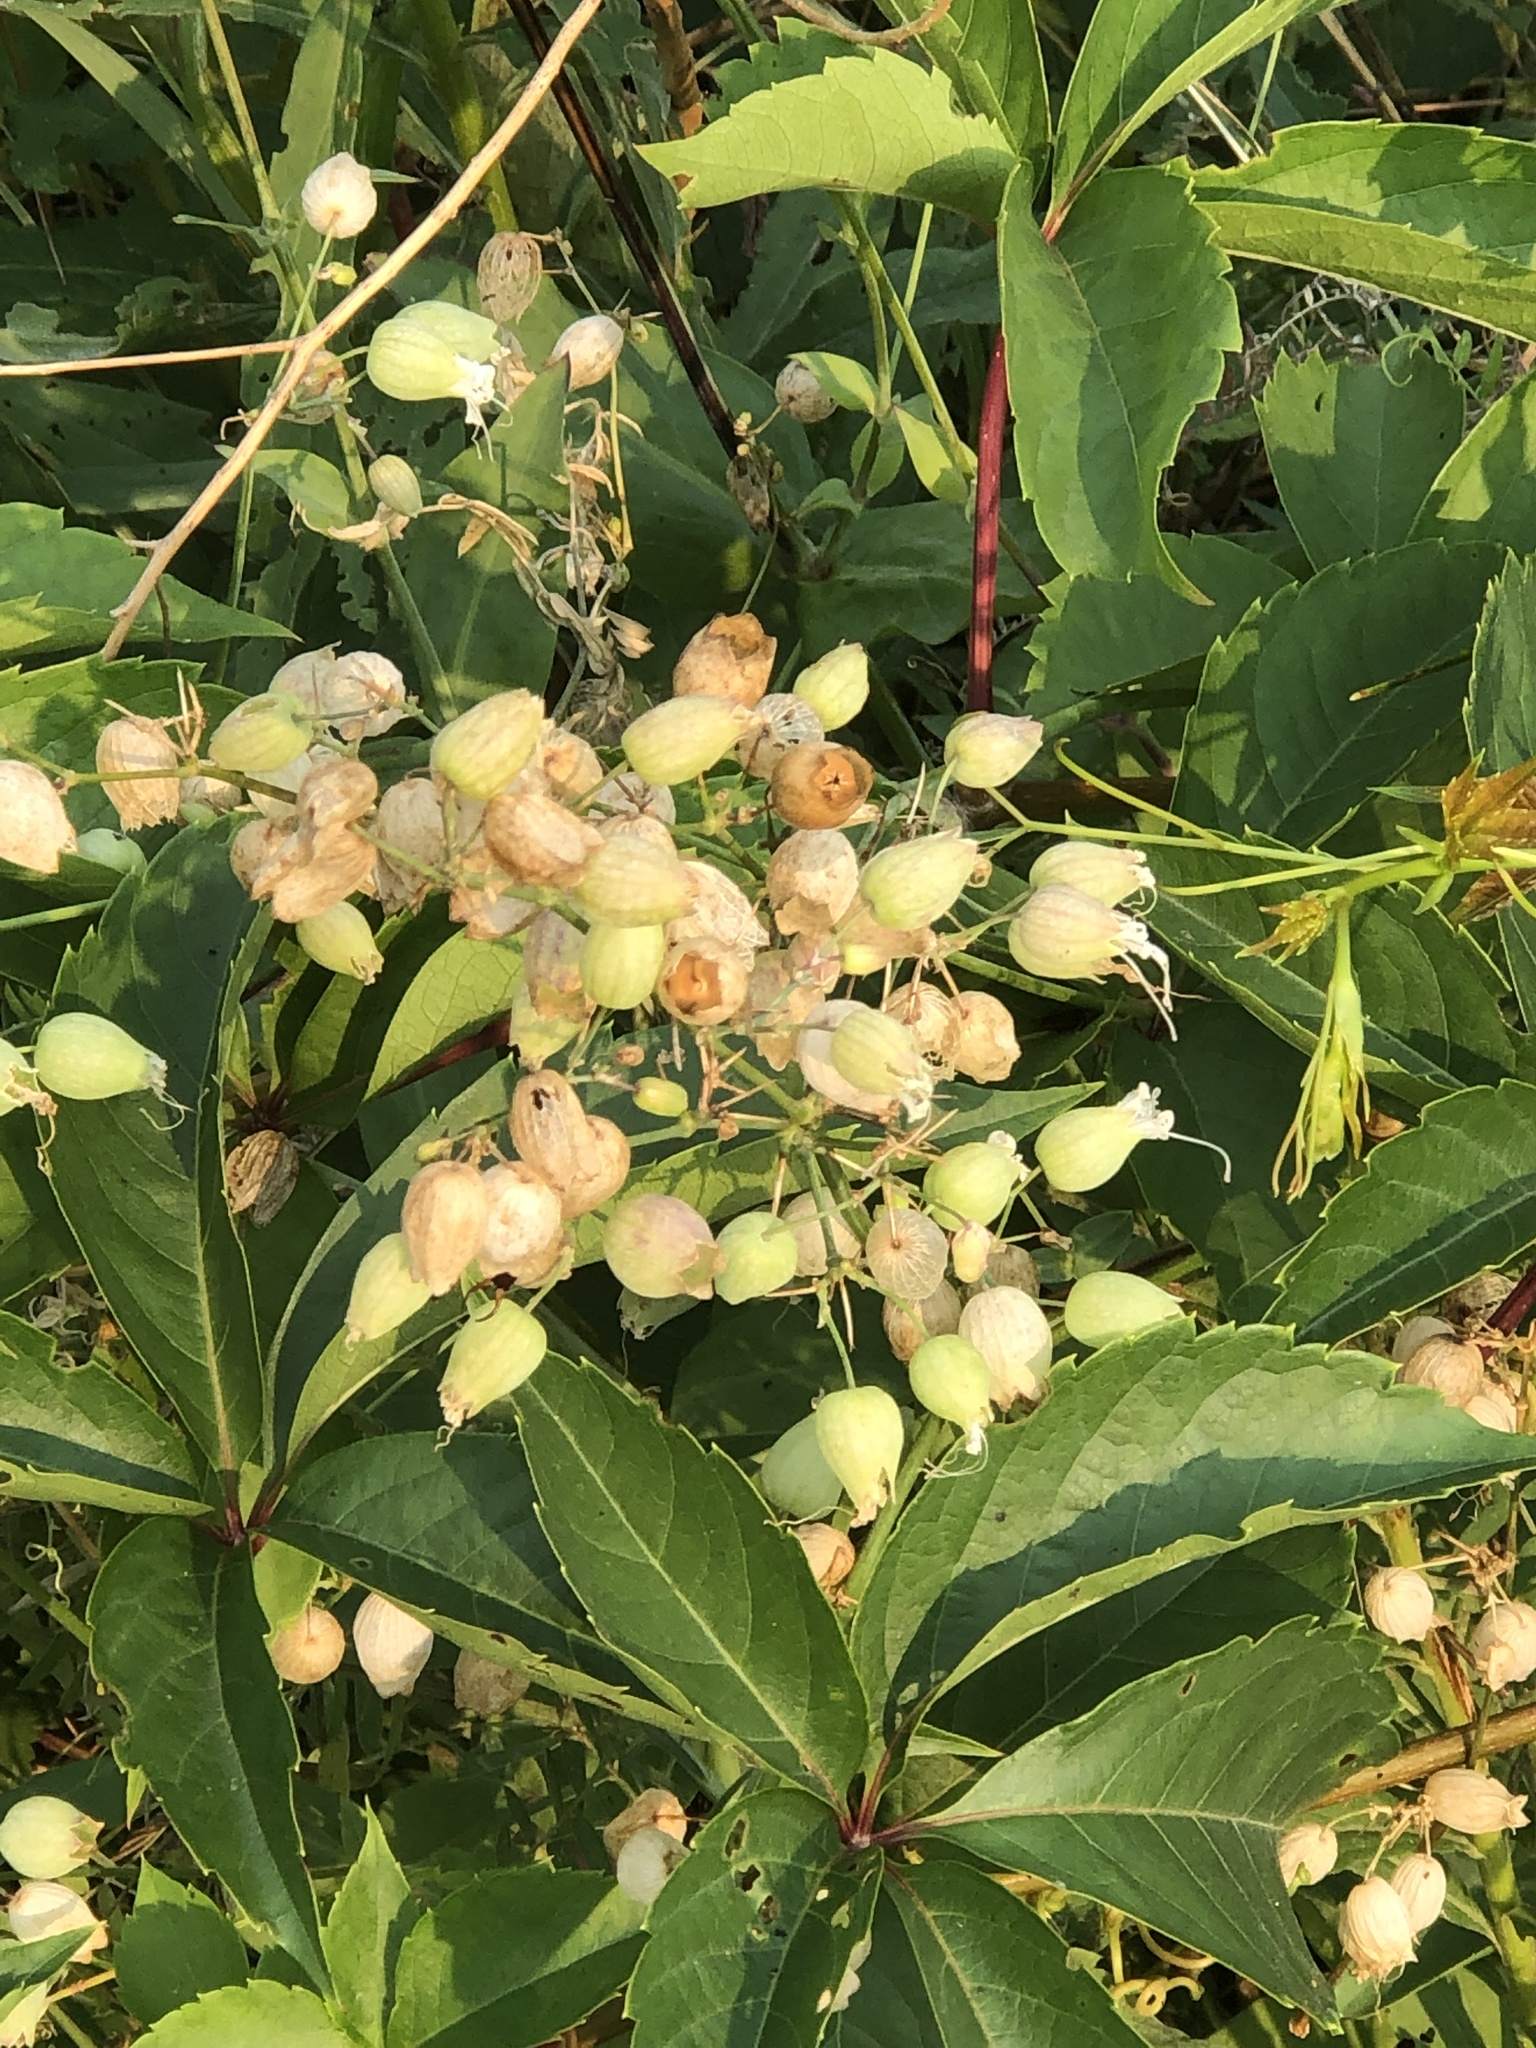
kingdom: Plantae
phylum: Tracheophyta
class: Magnoliopsida
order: Caryophyllales
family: Caryophyllaceae
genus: Silene
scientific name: Silene vulgaris
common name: Bladder campion
